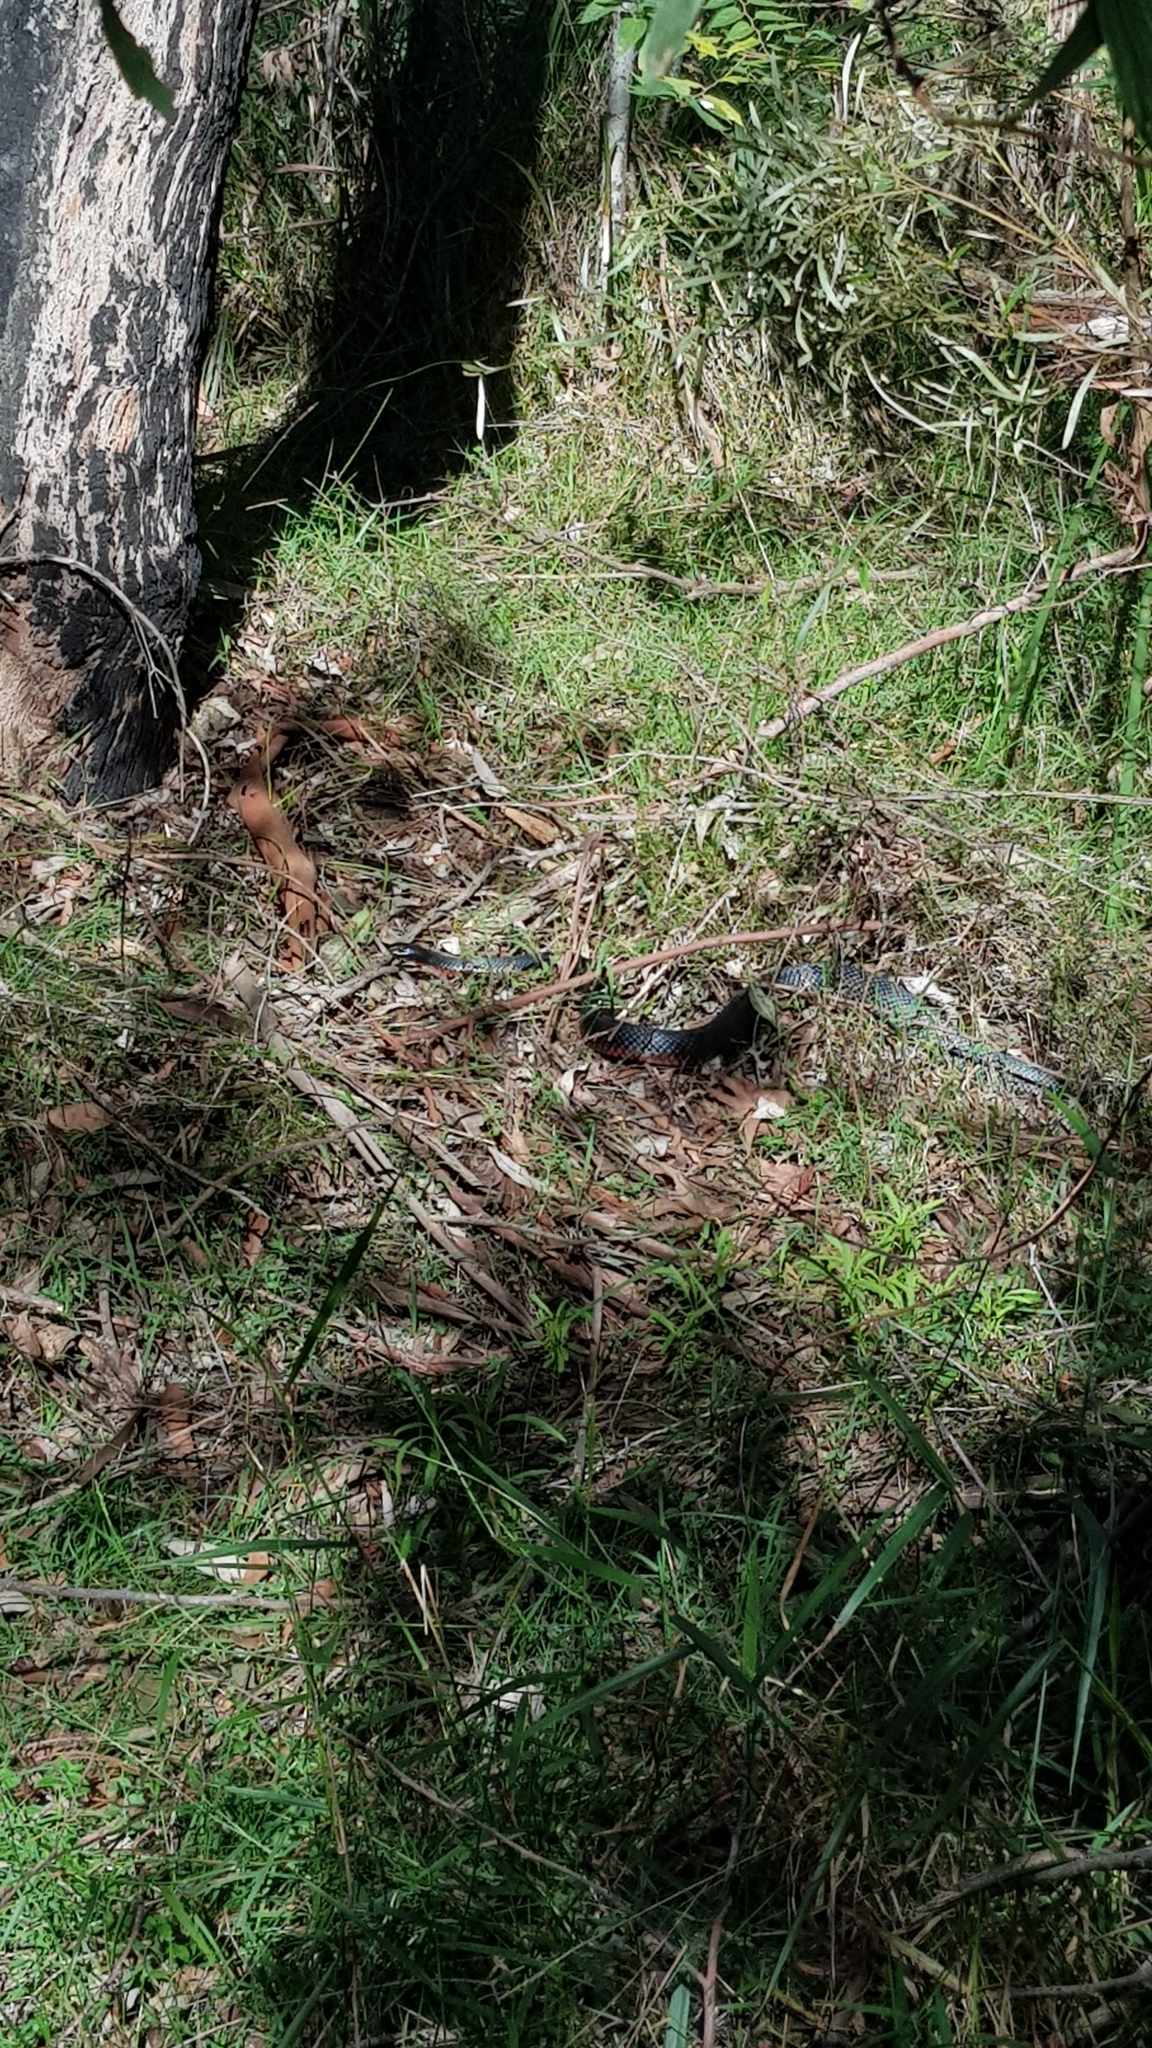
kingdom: Animalia
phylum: Chordata
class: Squamata
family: Elapidae
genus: Pseudechis
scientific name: Pseudechis porphyriacus
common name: Australian black snake
